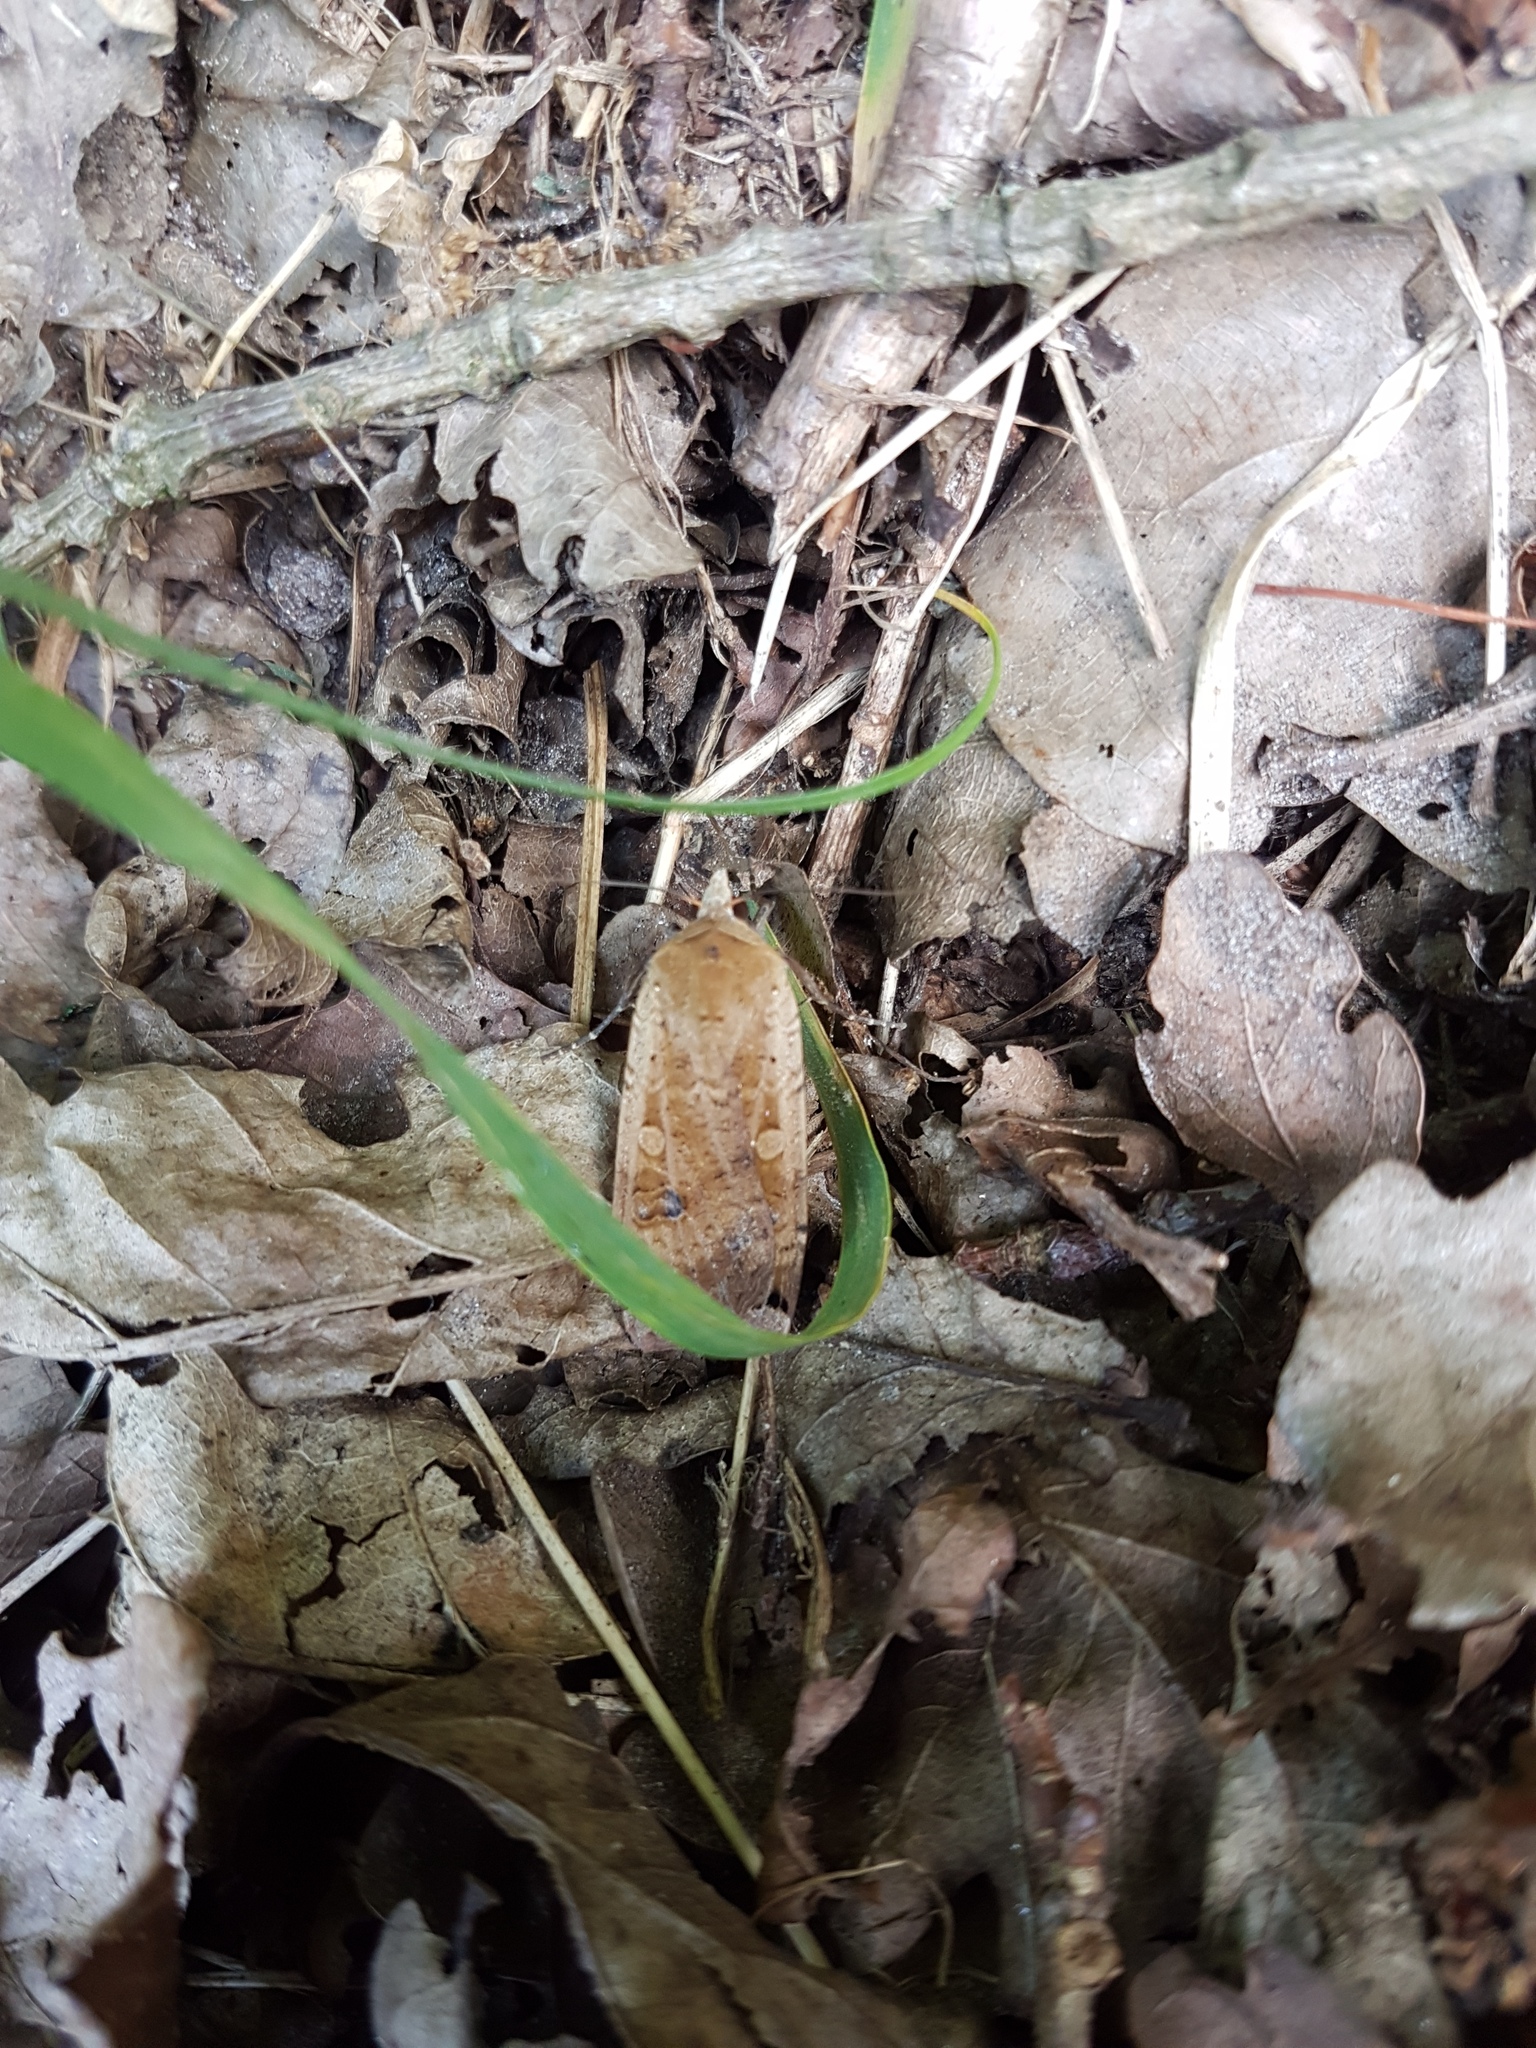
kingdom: Animalia
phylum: Arthropoda
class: Insecta
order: Lepidoptera
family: Noctuidae
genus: Noctua
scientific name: Noctua pronuba
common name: Large yellow underwing
